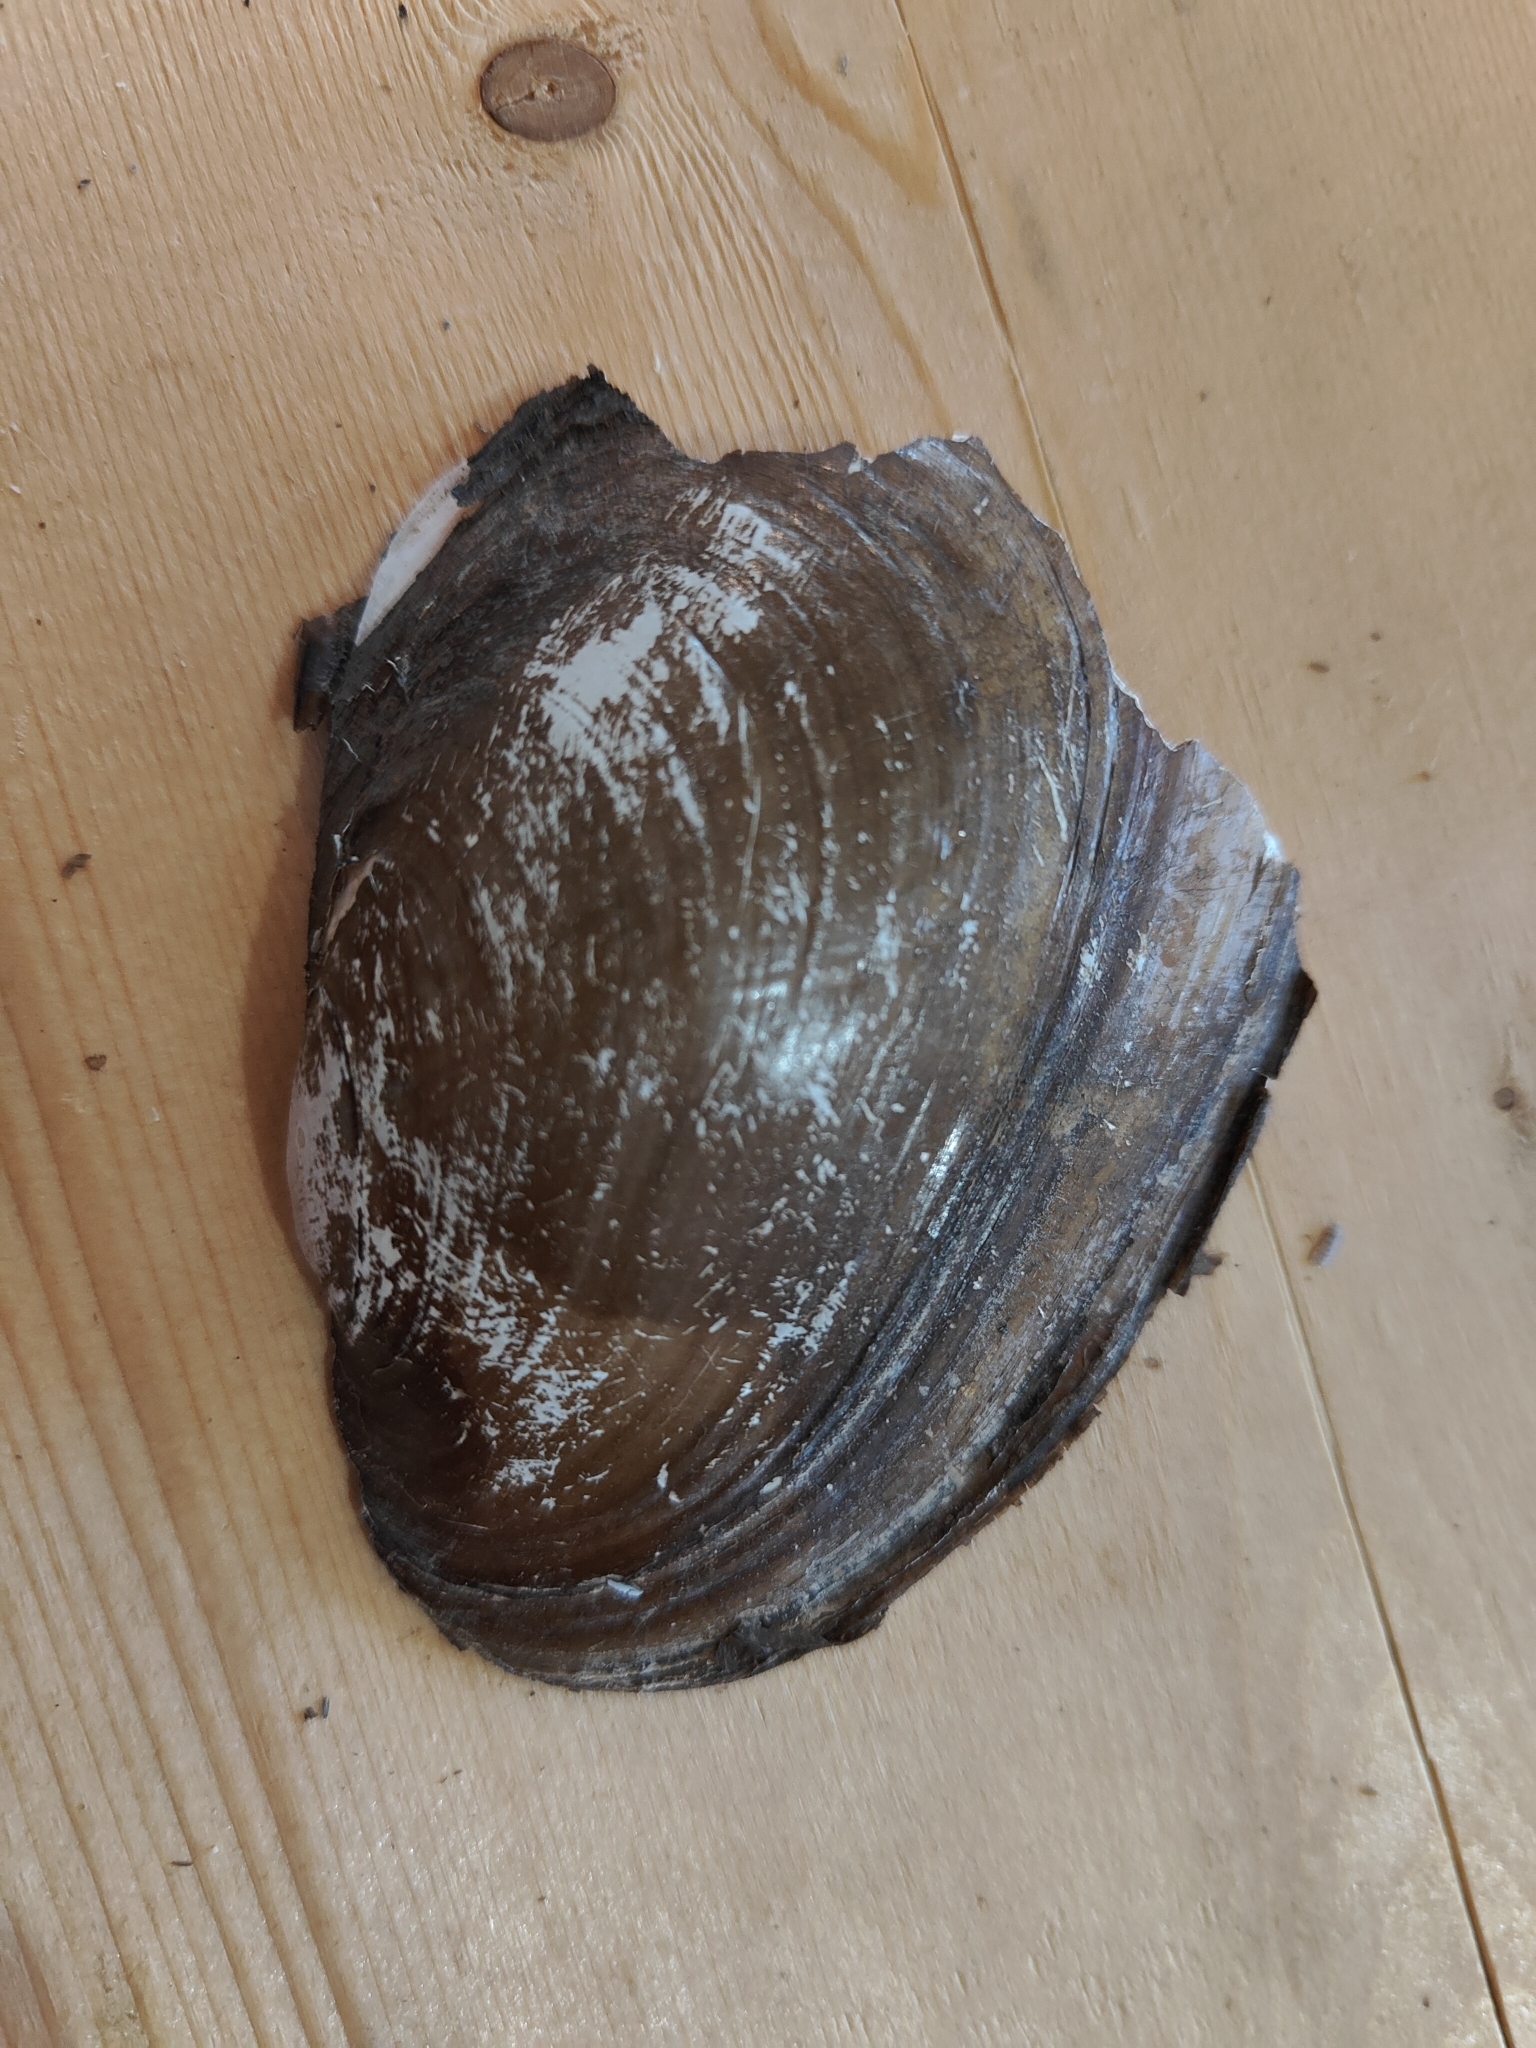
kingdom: Animalia
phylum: Mollusca
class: Bivalvia
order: Unionida
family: Unionidae
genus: Potamilus
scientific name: Potamilus fragilis
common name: Fragile papershell
